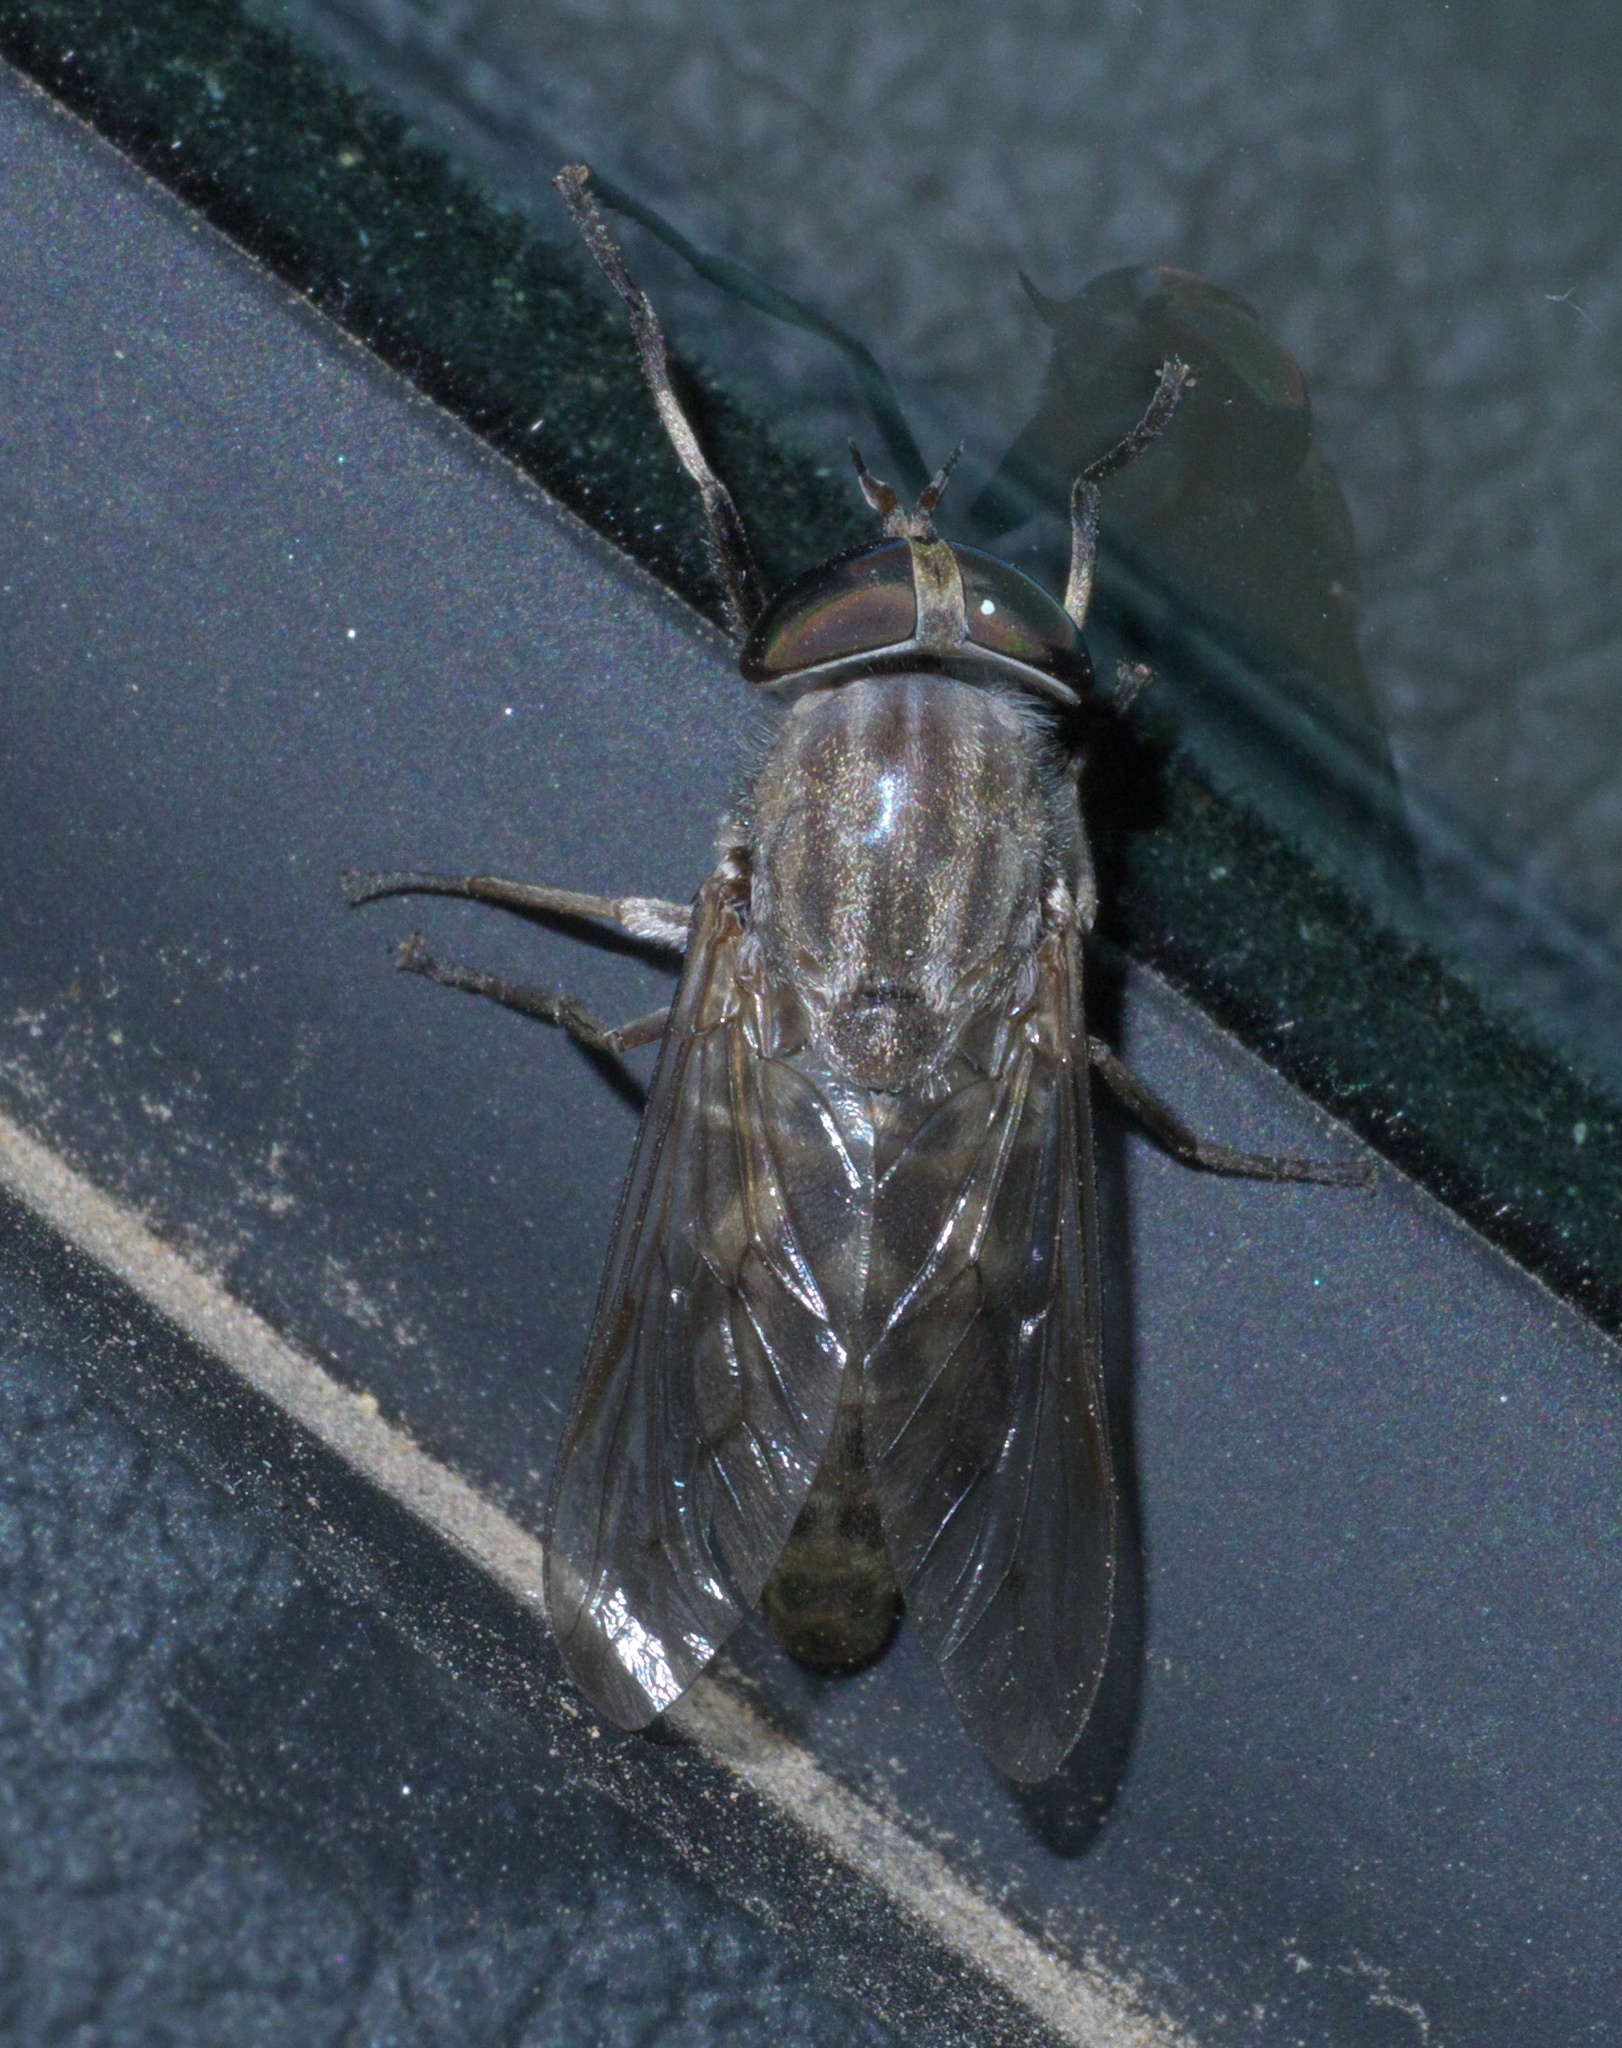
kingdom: Animalia
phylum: Arthropoda
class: Insecta
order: Diptera
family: Tabanidae
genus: Tabanus
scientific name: Tabanus abactor
